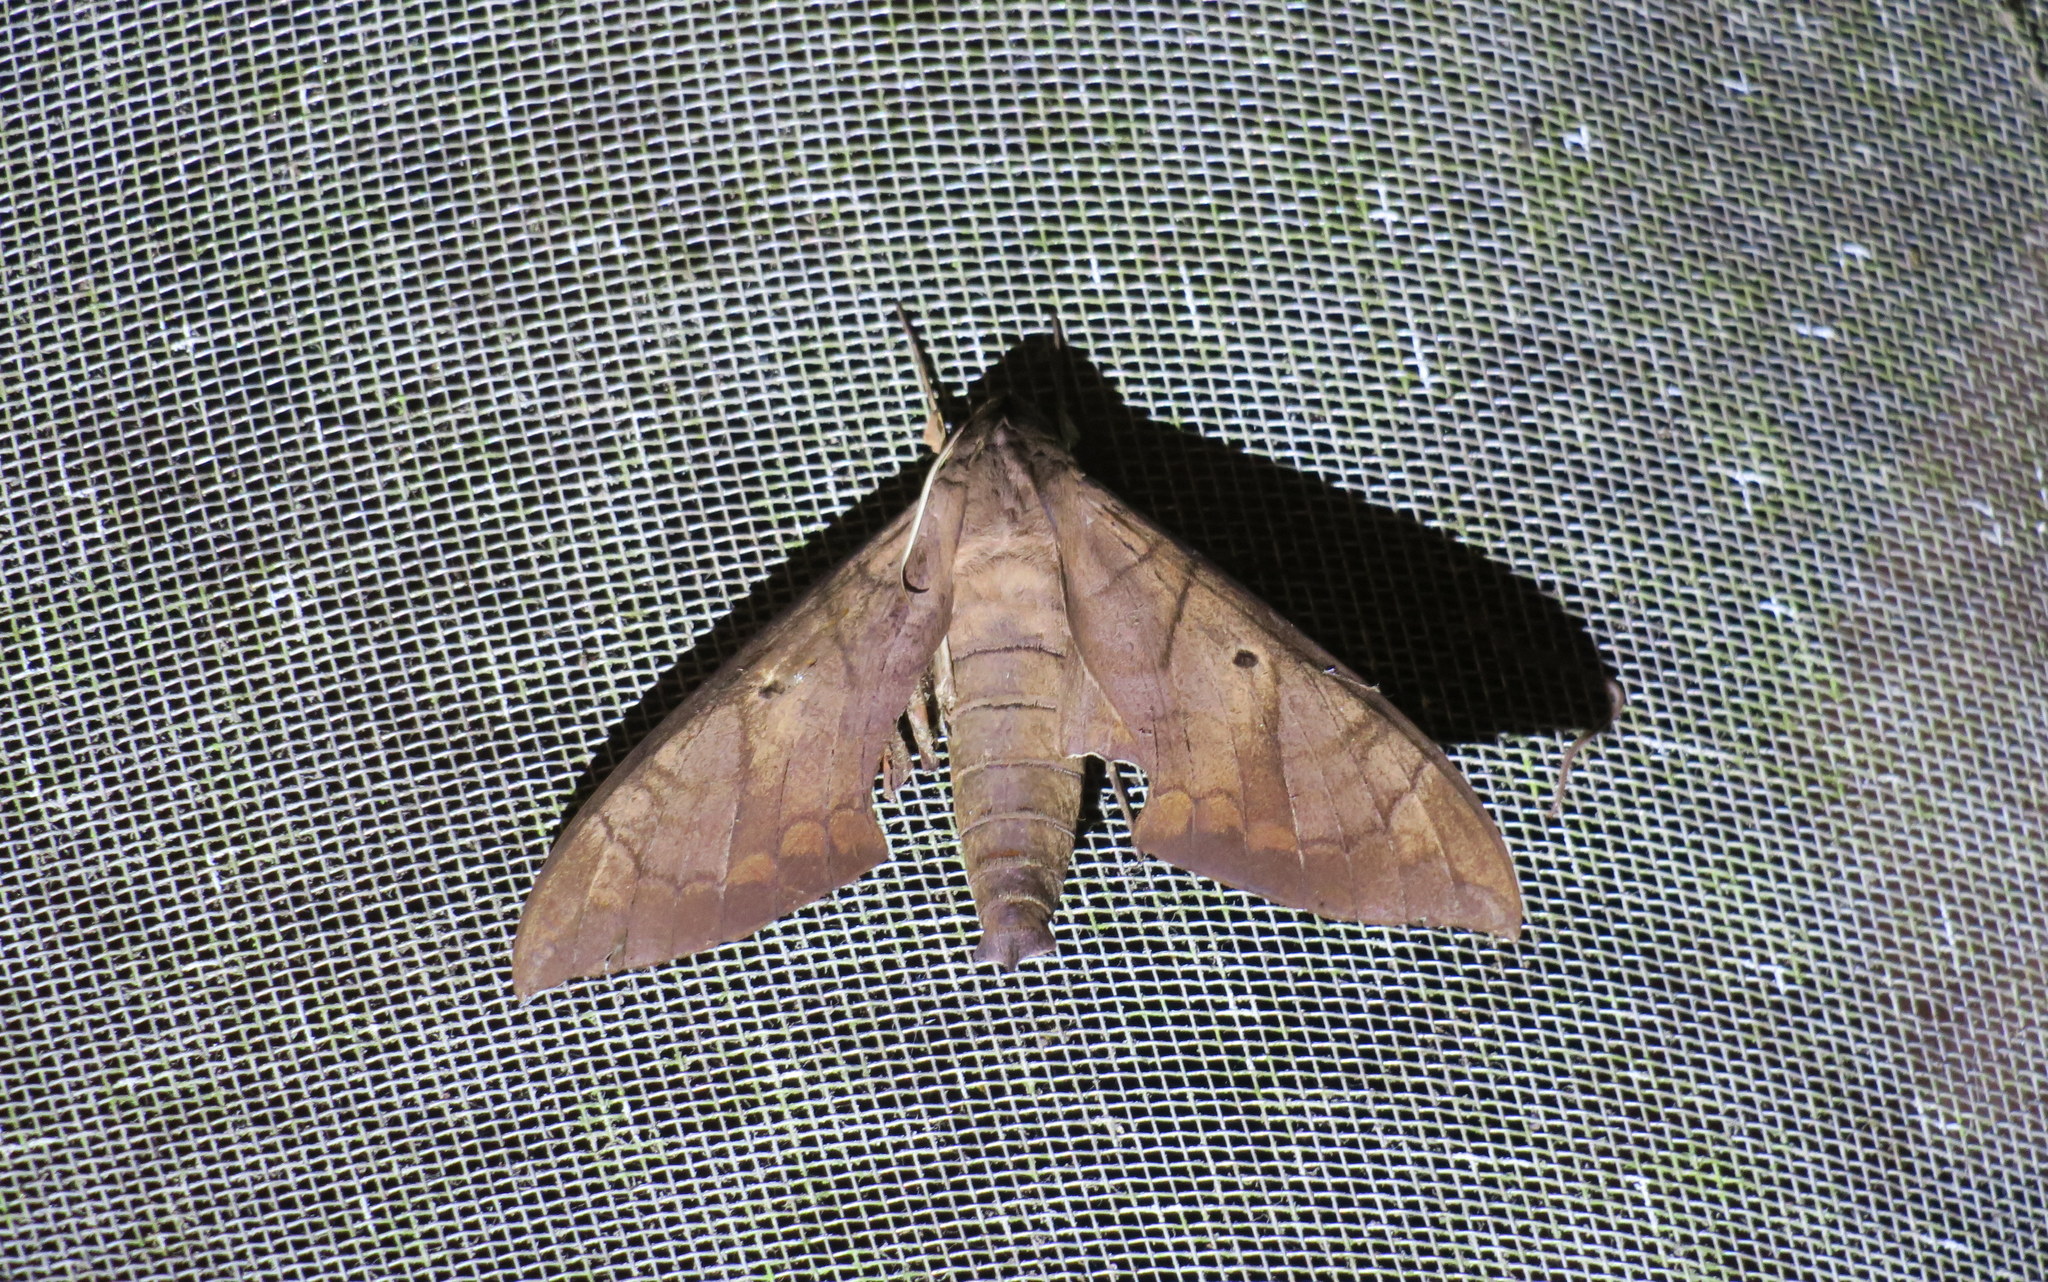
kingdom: Animalia
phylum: Arthropoda
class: Insecta
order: Lepidoptera
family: Sphingidae
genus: Pachylia
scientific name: Pachylia darceta
